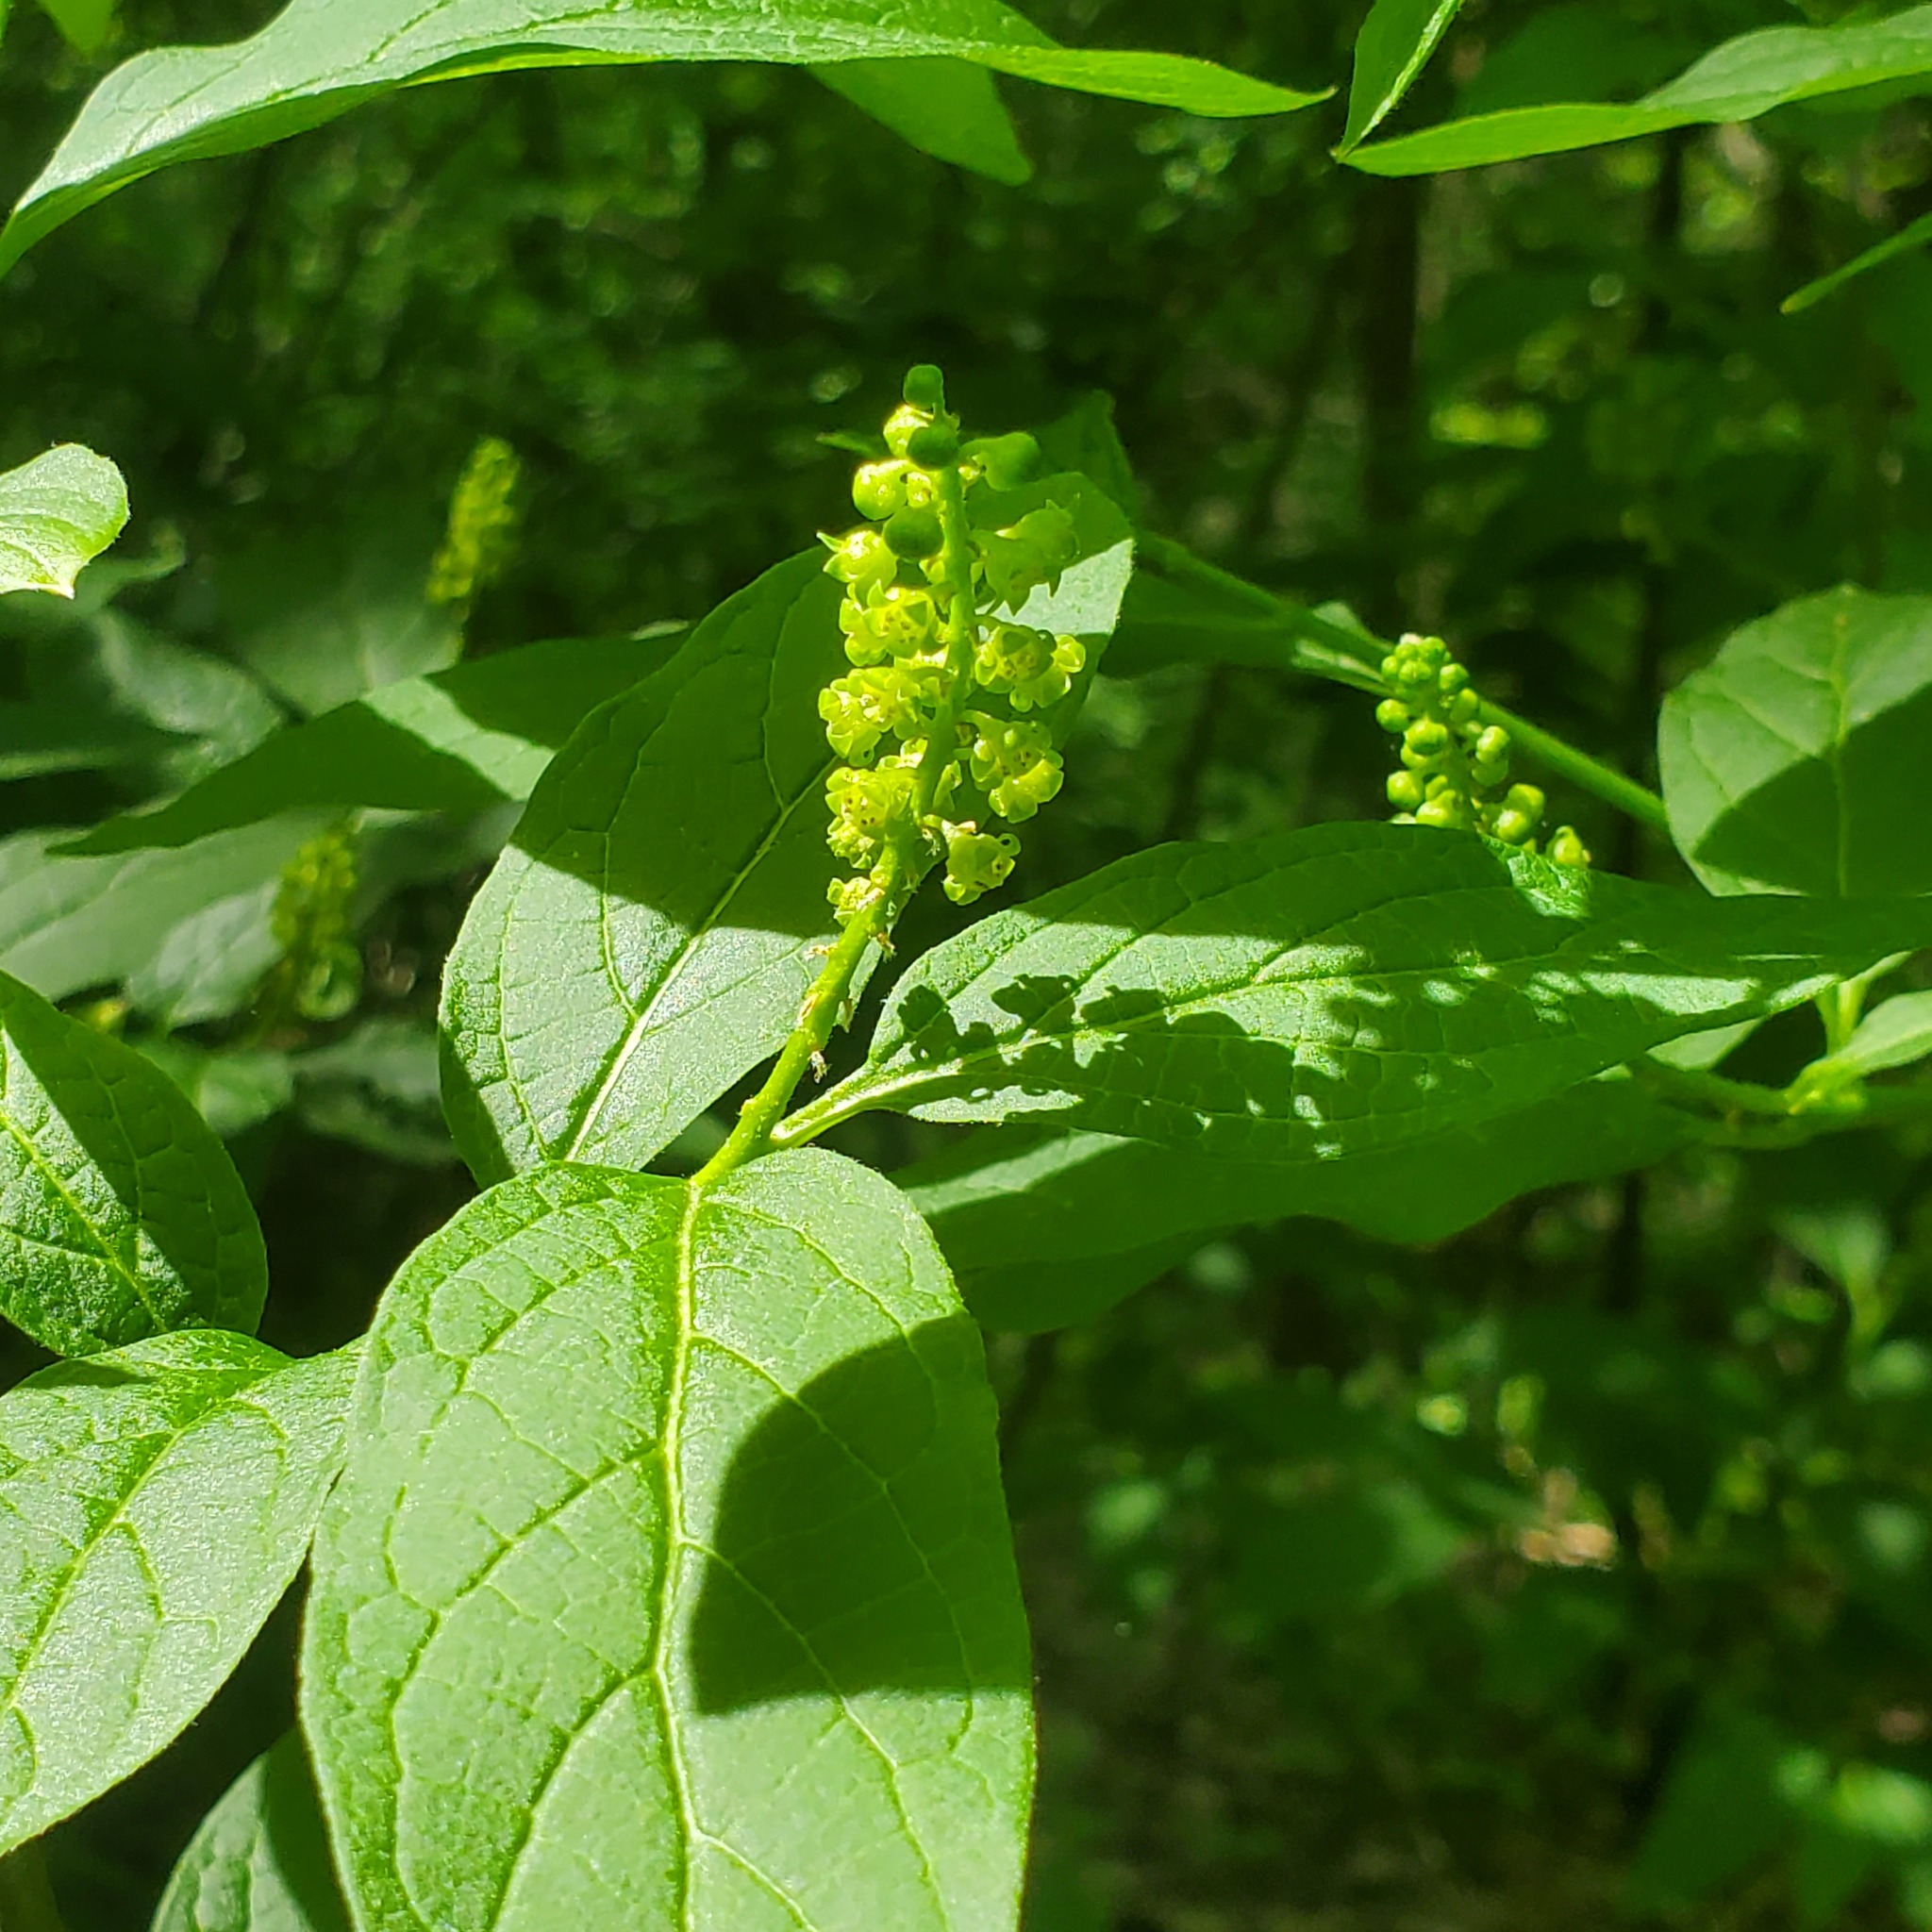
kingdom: Plantae
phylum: Tracheophyta
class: Magnoliopsida
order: Santalales
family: Cervantesiaceae
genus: Pyrularia
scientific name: Pyrularia pubera
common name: Oilnut
